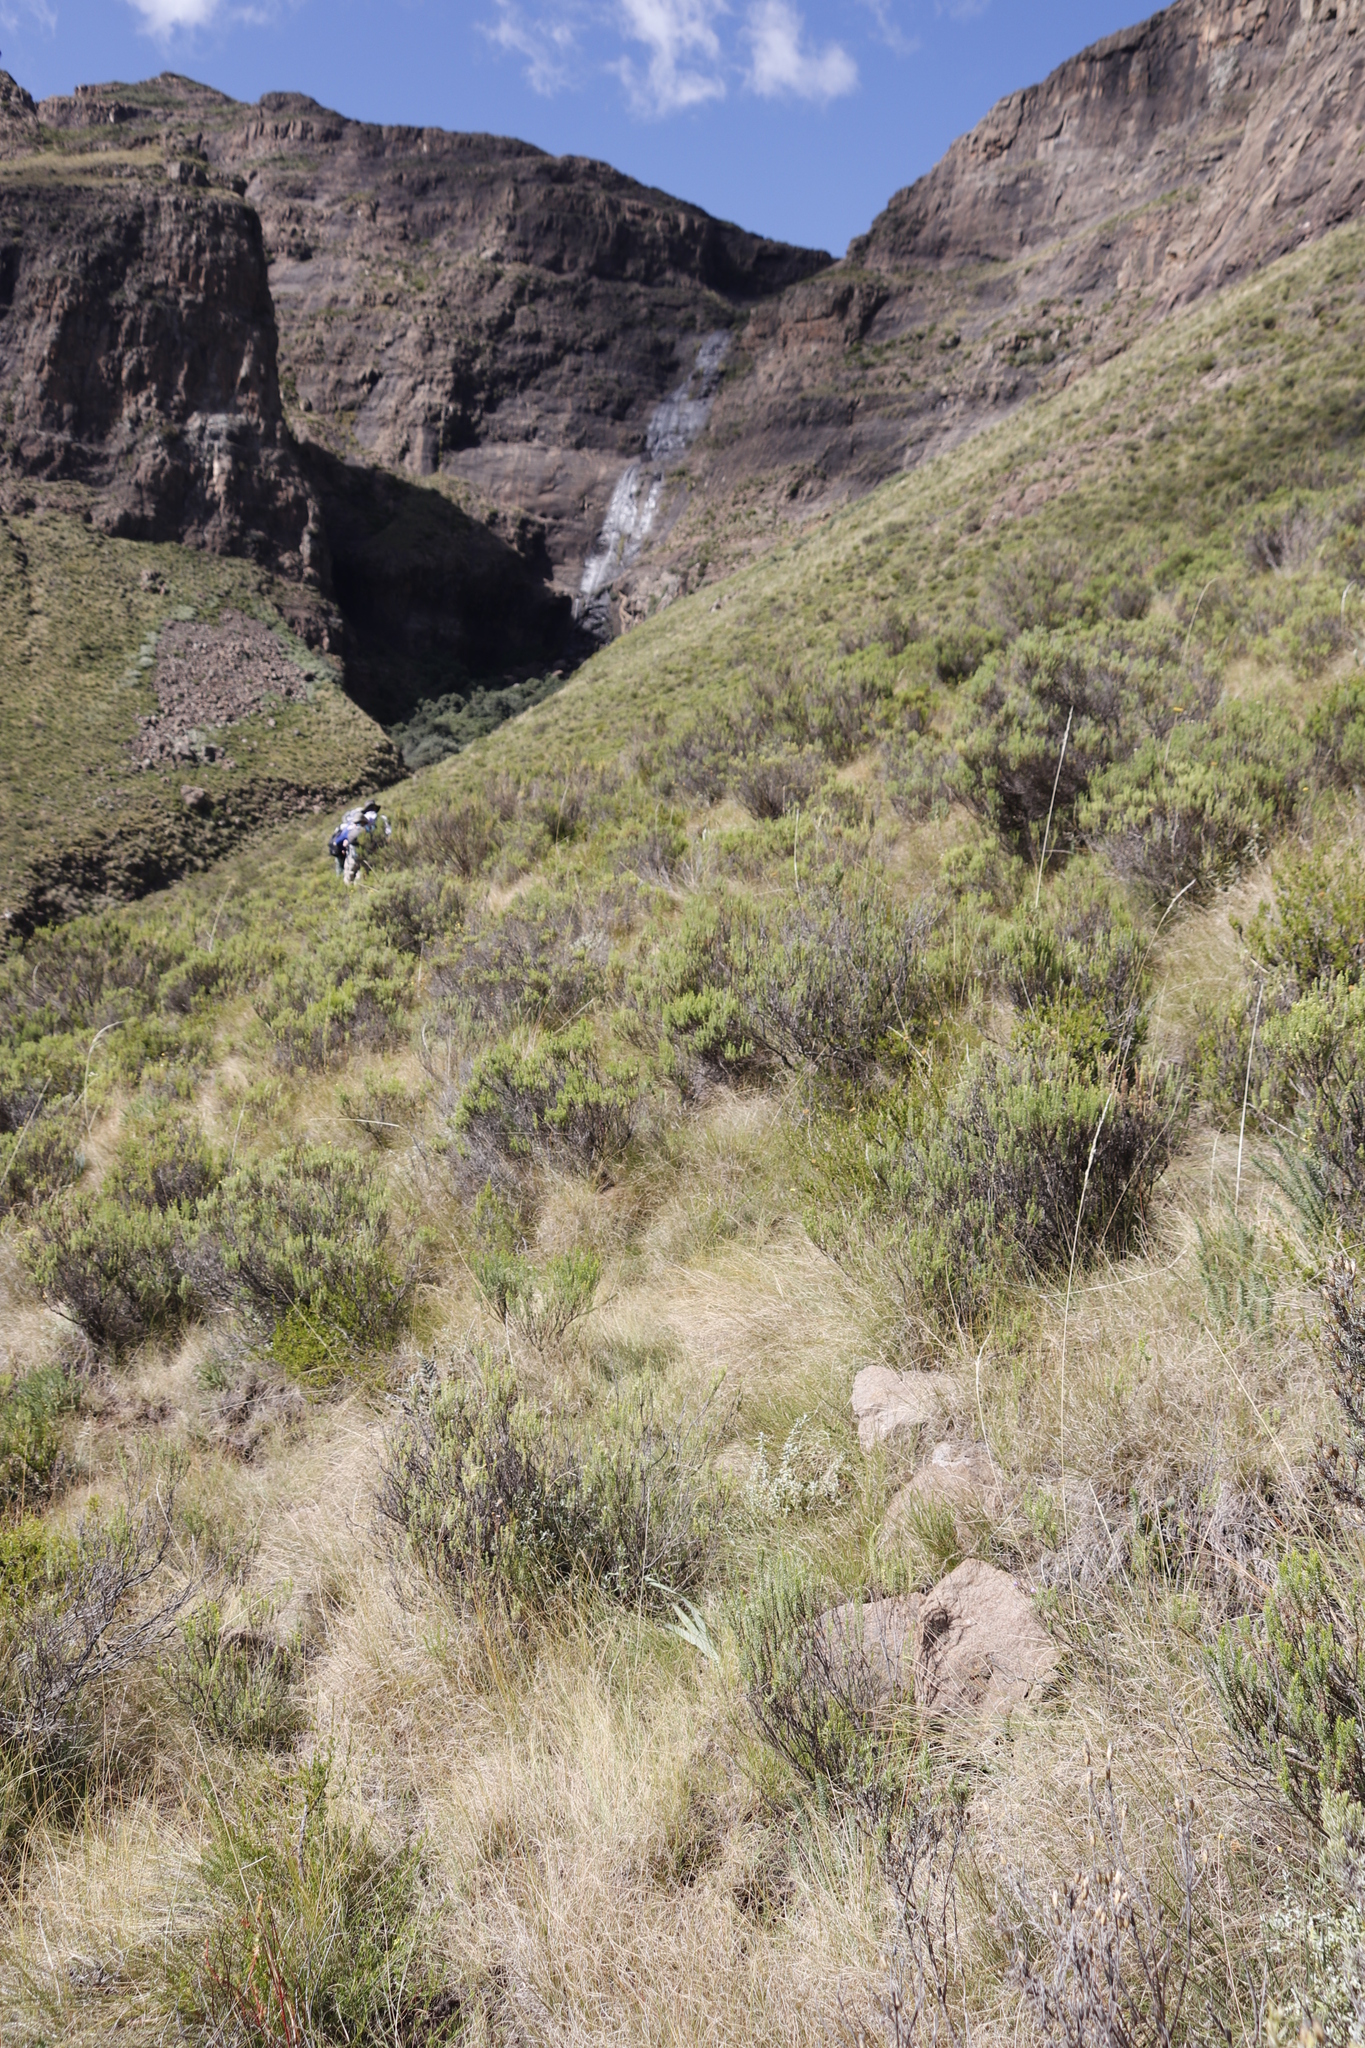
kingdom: Plantae
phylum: Tracheophyta
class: Liliopsida
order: Poales
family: Poaceae
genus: Themeda
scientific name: Themeda triandra
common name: Kangaroo grass
